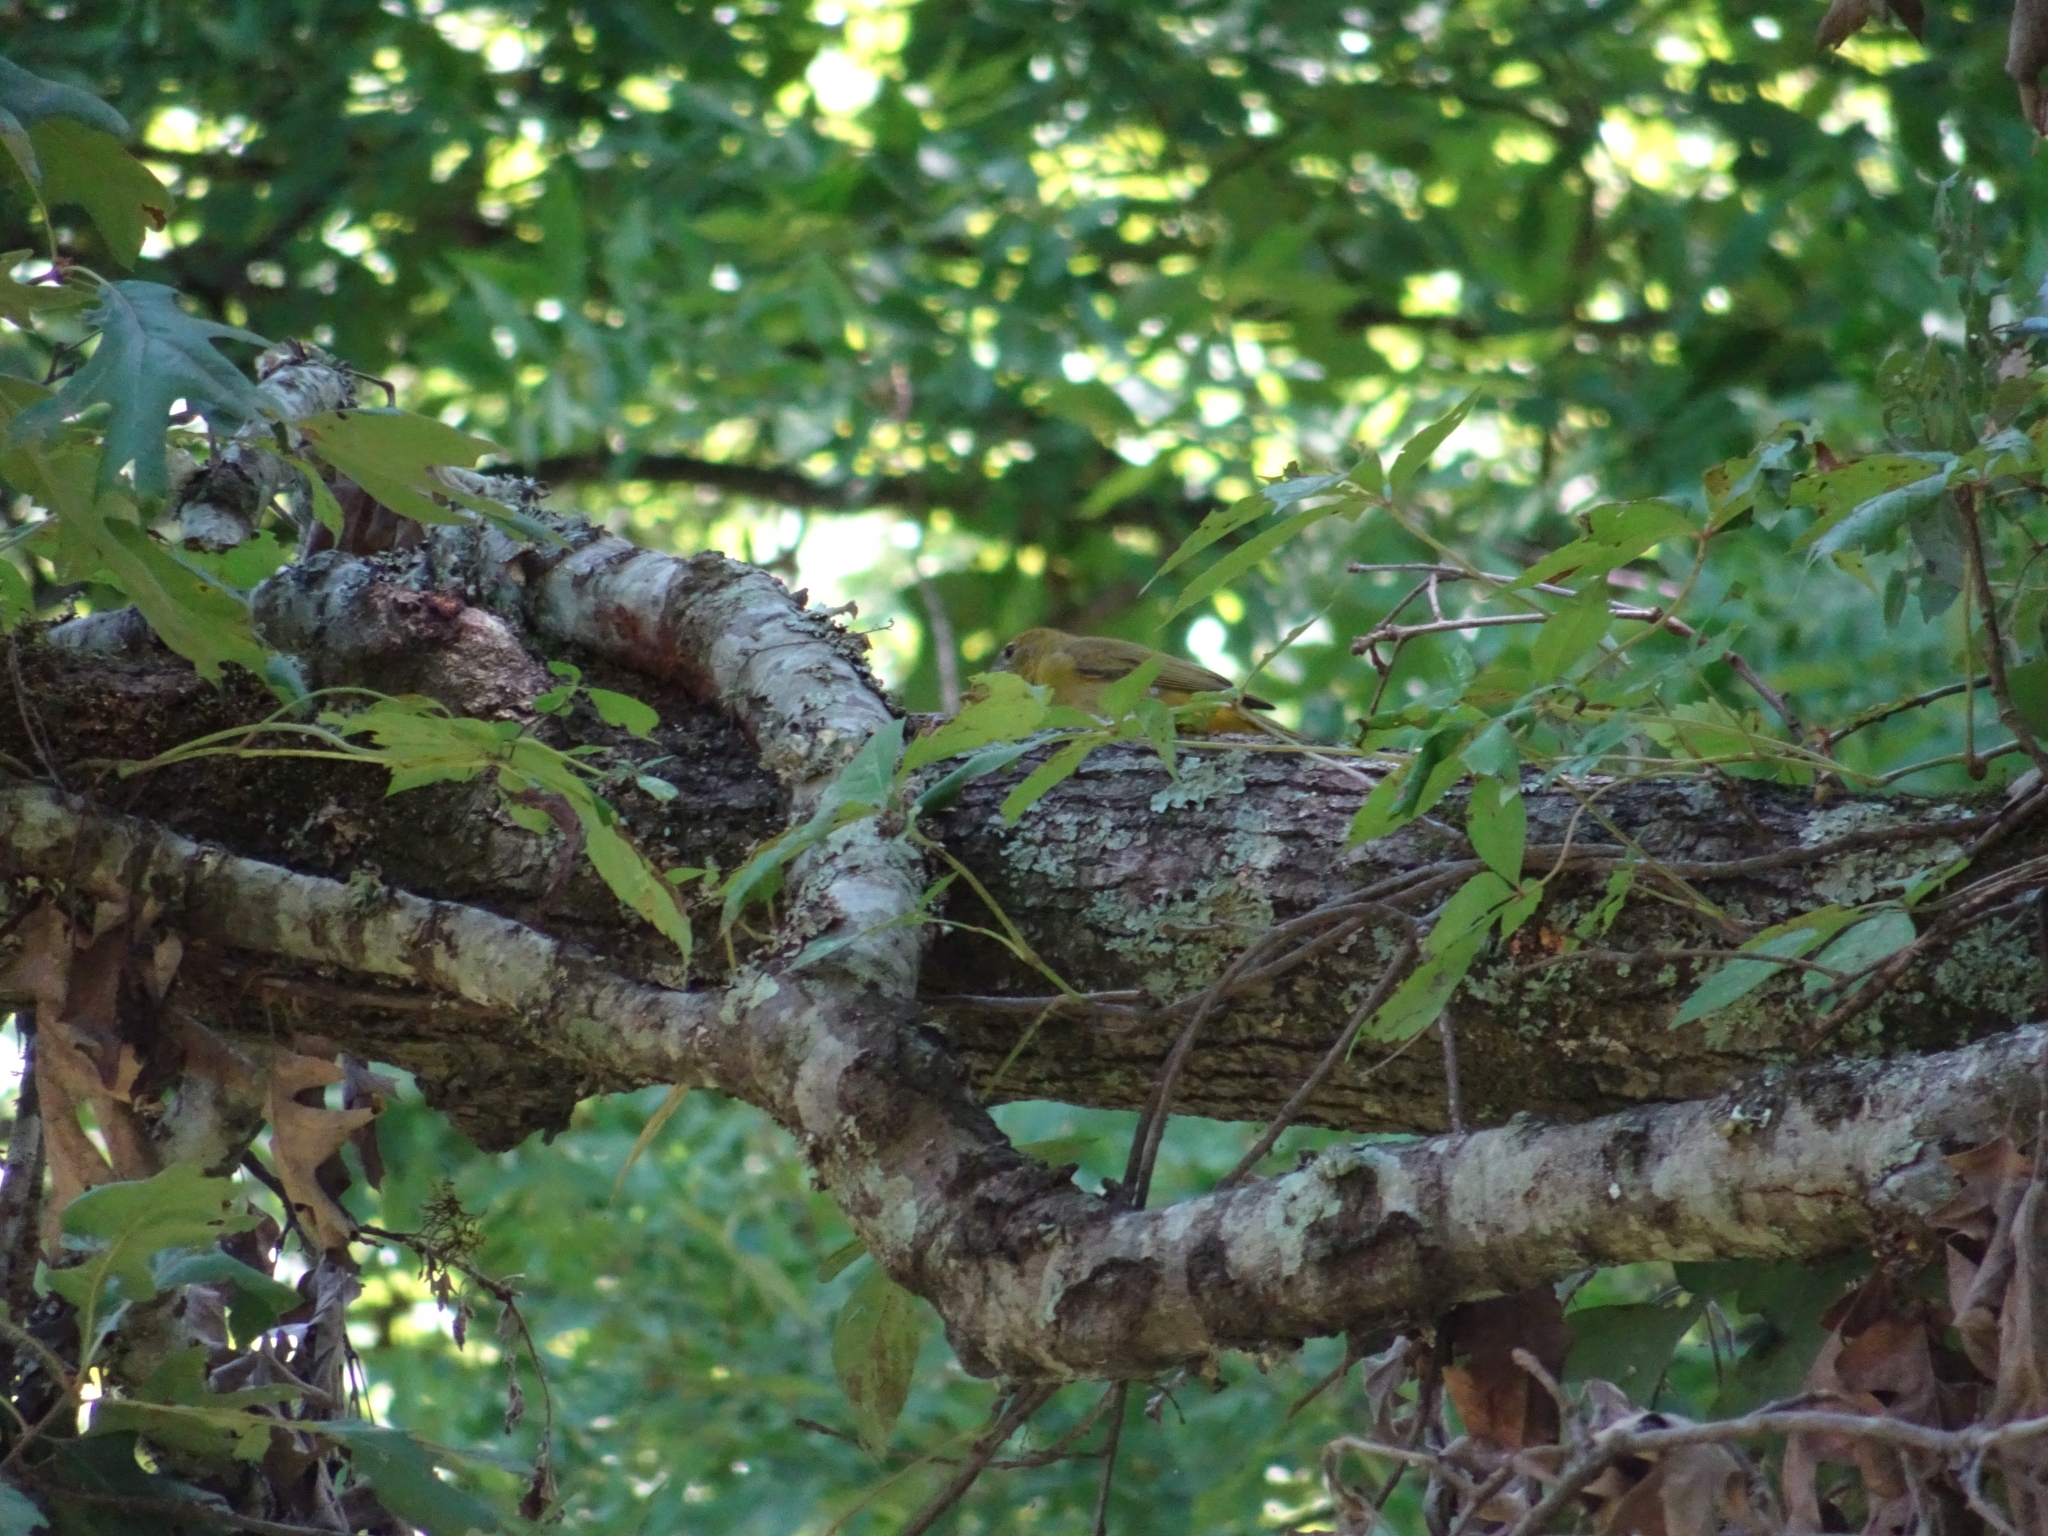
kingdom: Animalia
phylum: Chordata
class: Aves
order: Passeriformes
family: Cardinalidae
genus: Piranga
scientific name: Piranga rubra
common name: Summer tanager
